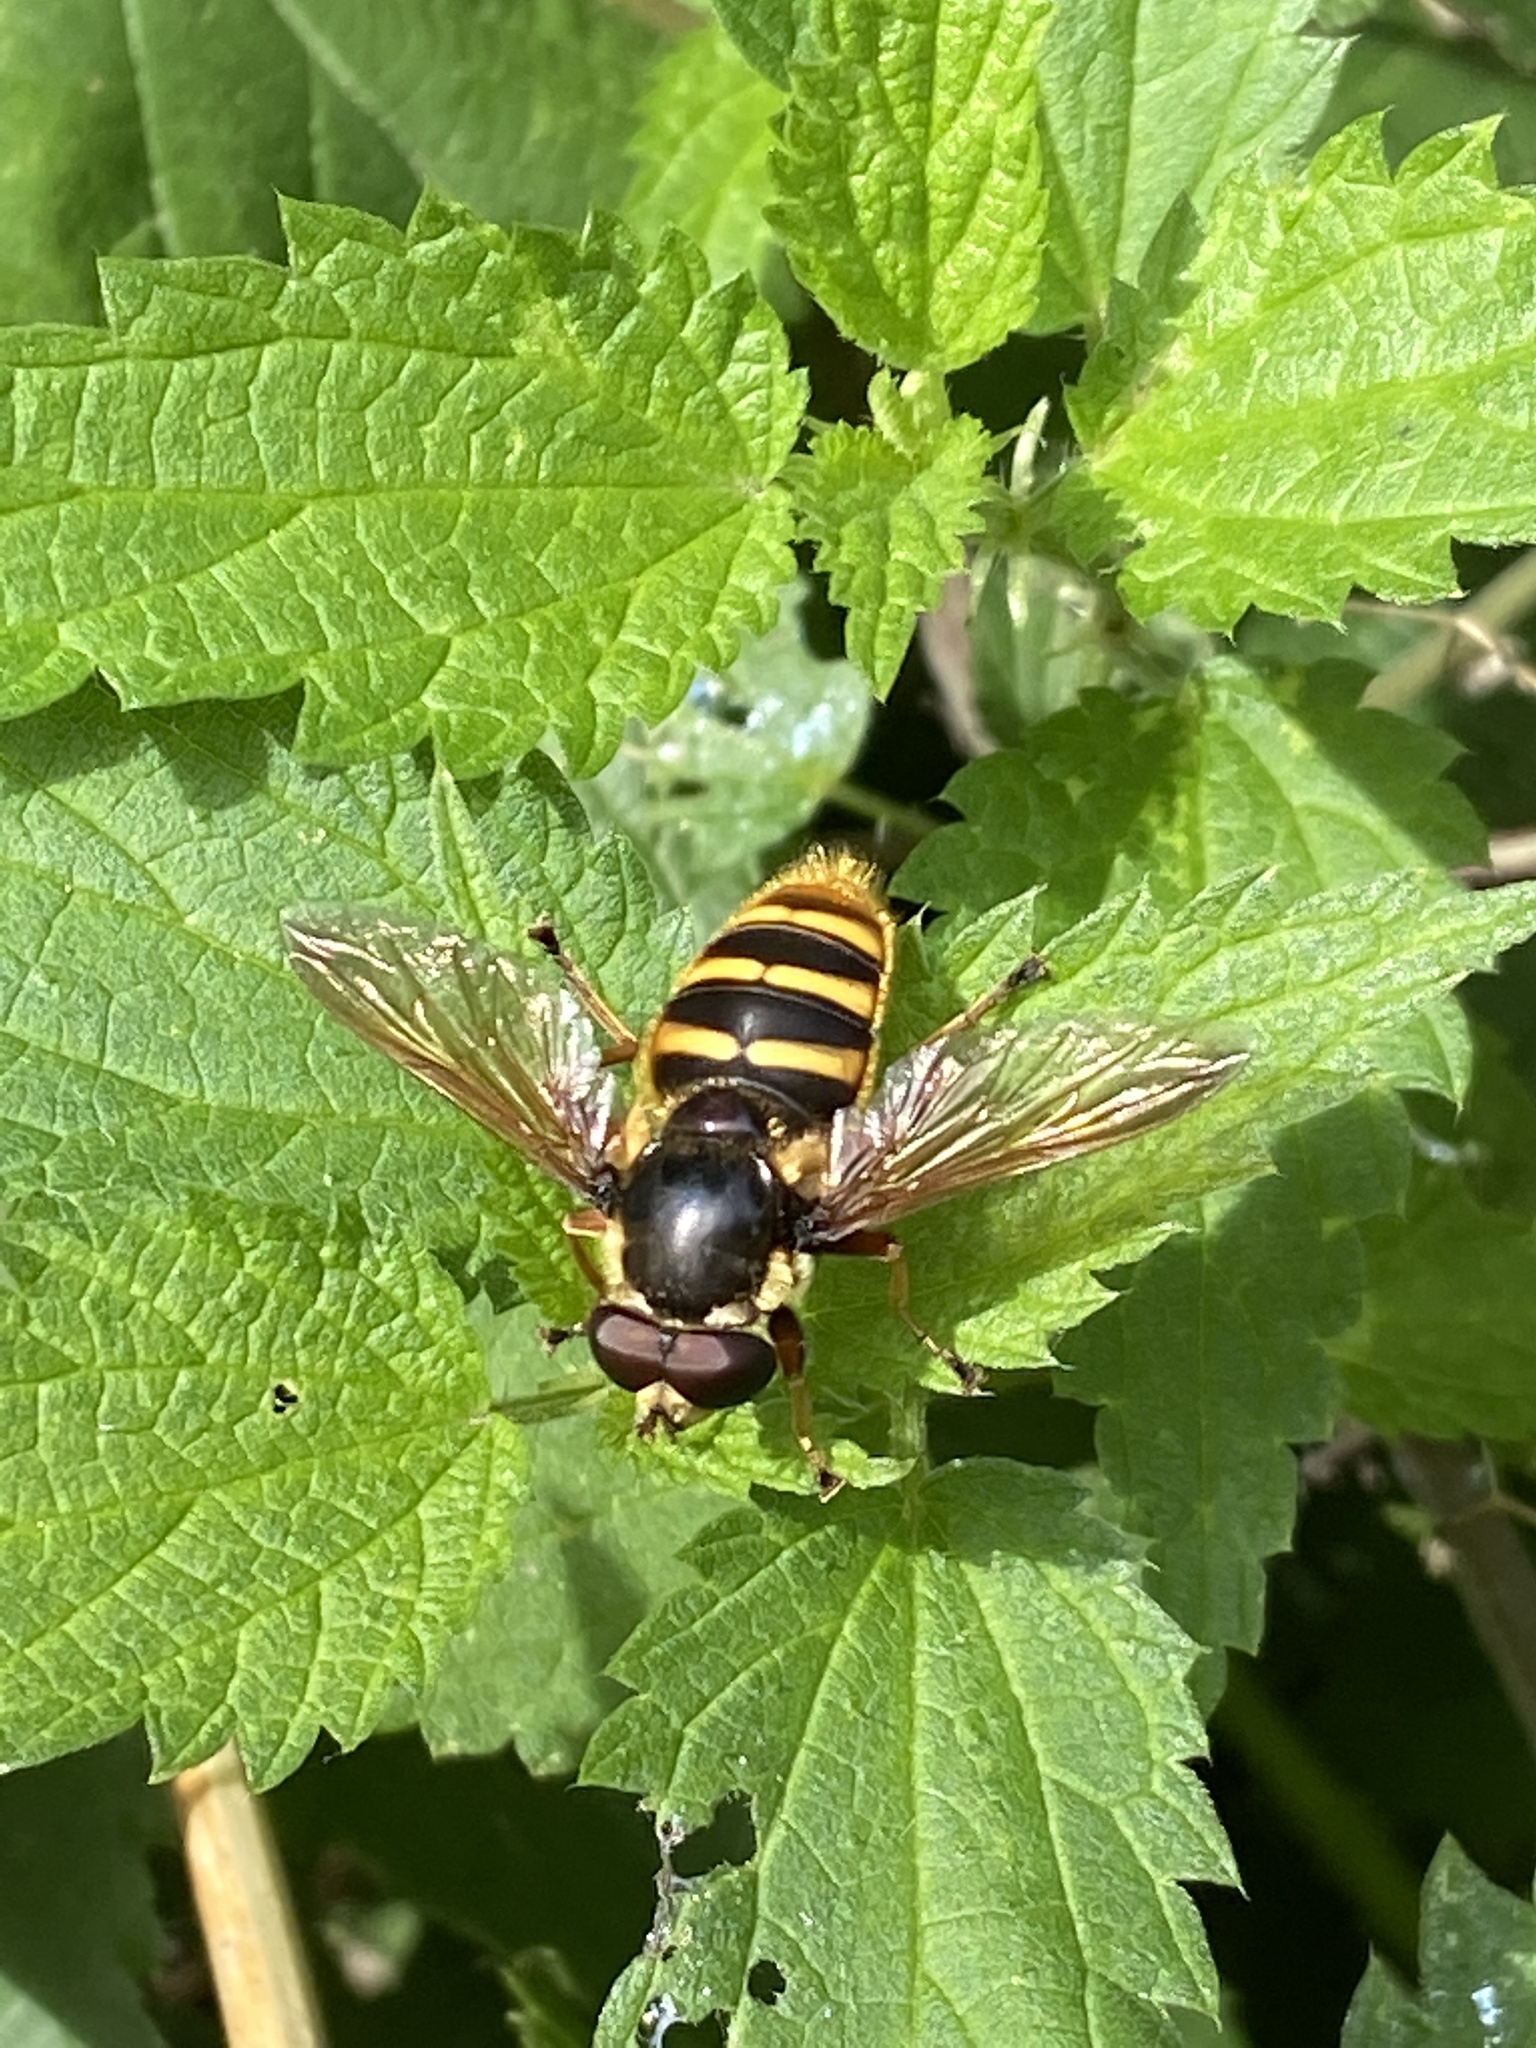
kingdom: Animalia
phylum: Arthropoda
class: Insecta
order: Diptera
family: Syrphidae
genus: Sericomyia
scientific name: Sericomyia silentis
